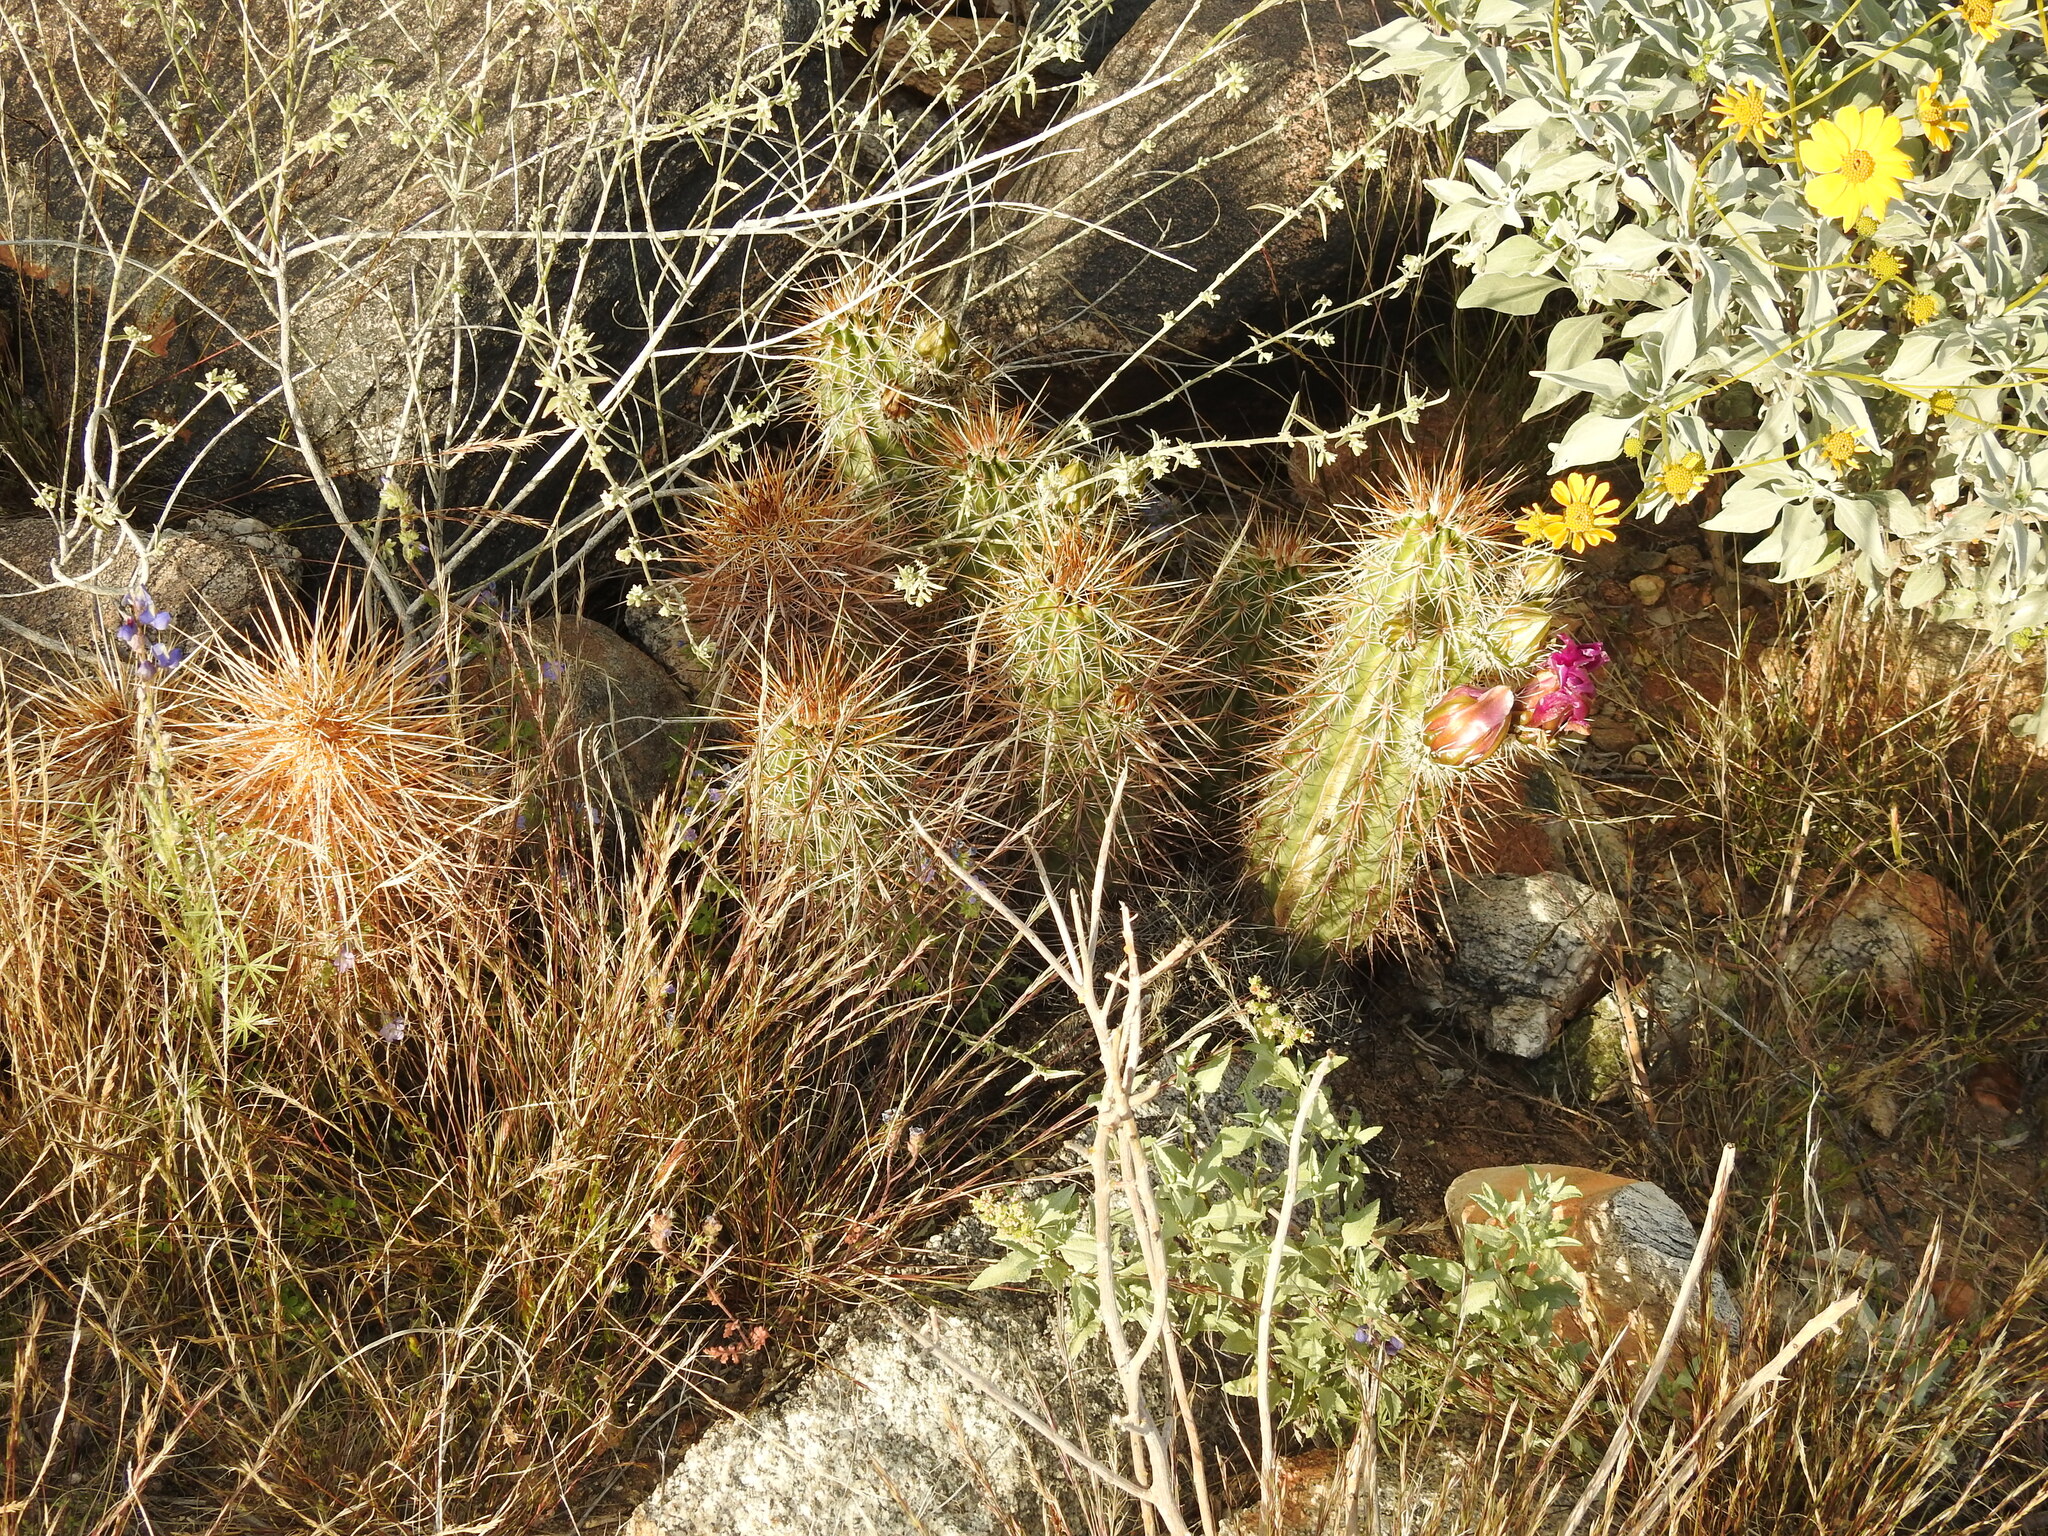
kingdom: Plantae
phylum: Tracheophyta
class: Magnoliopsida
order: Caryophyllales
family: Cactaceae
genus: Echinocereus
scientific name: Echinocereus engelmannii
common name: Engelmann's hedgehog cactus
